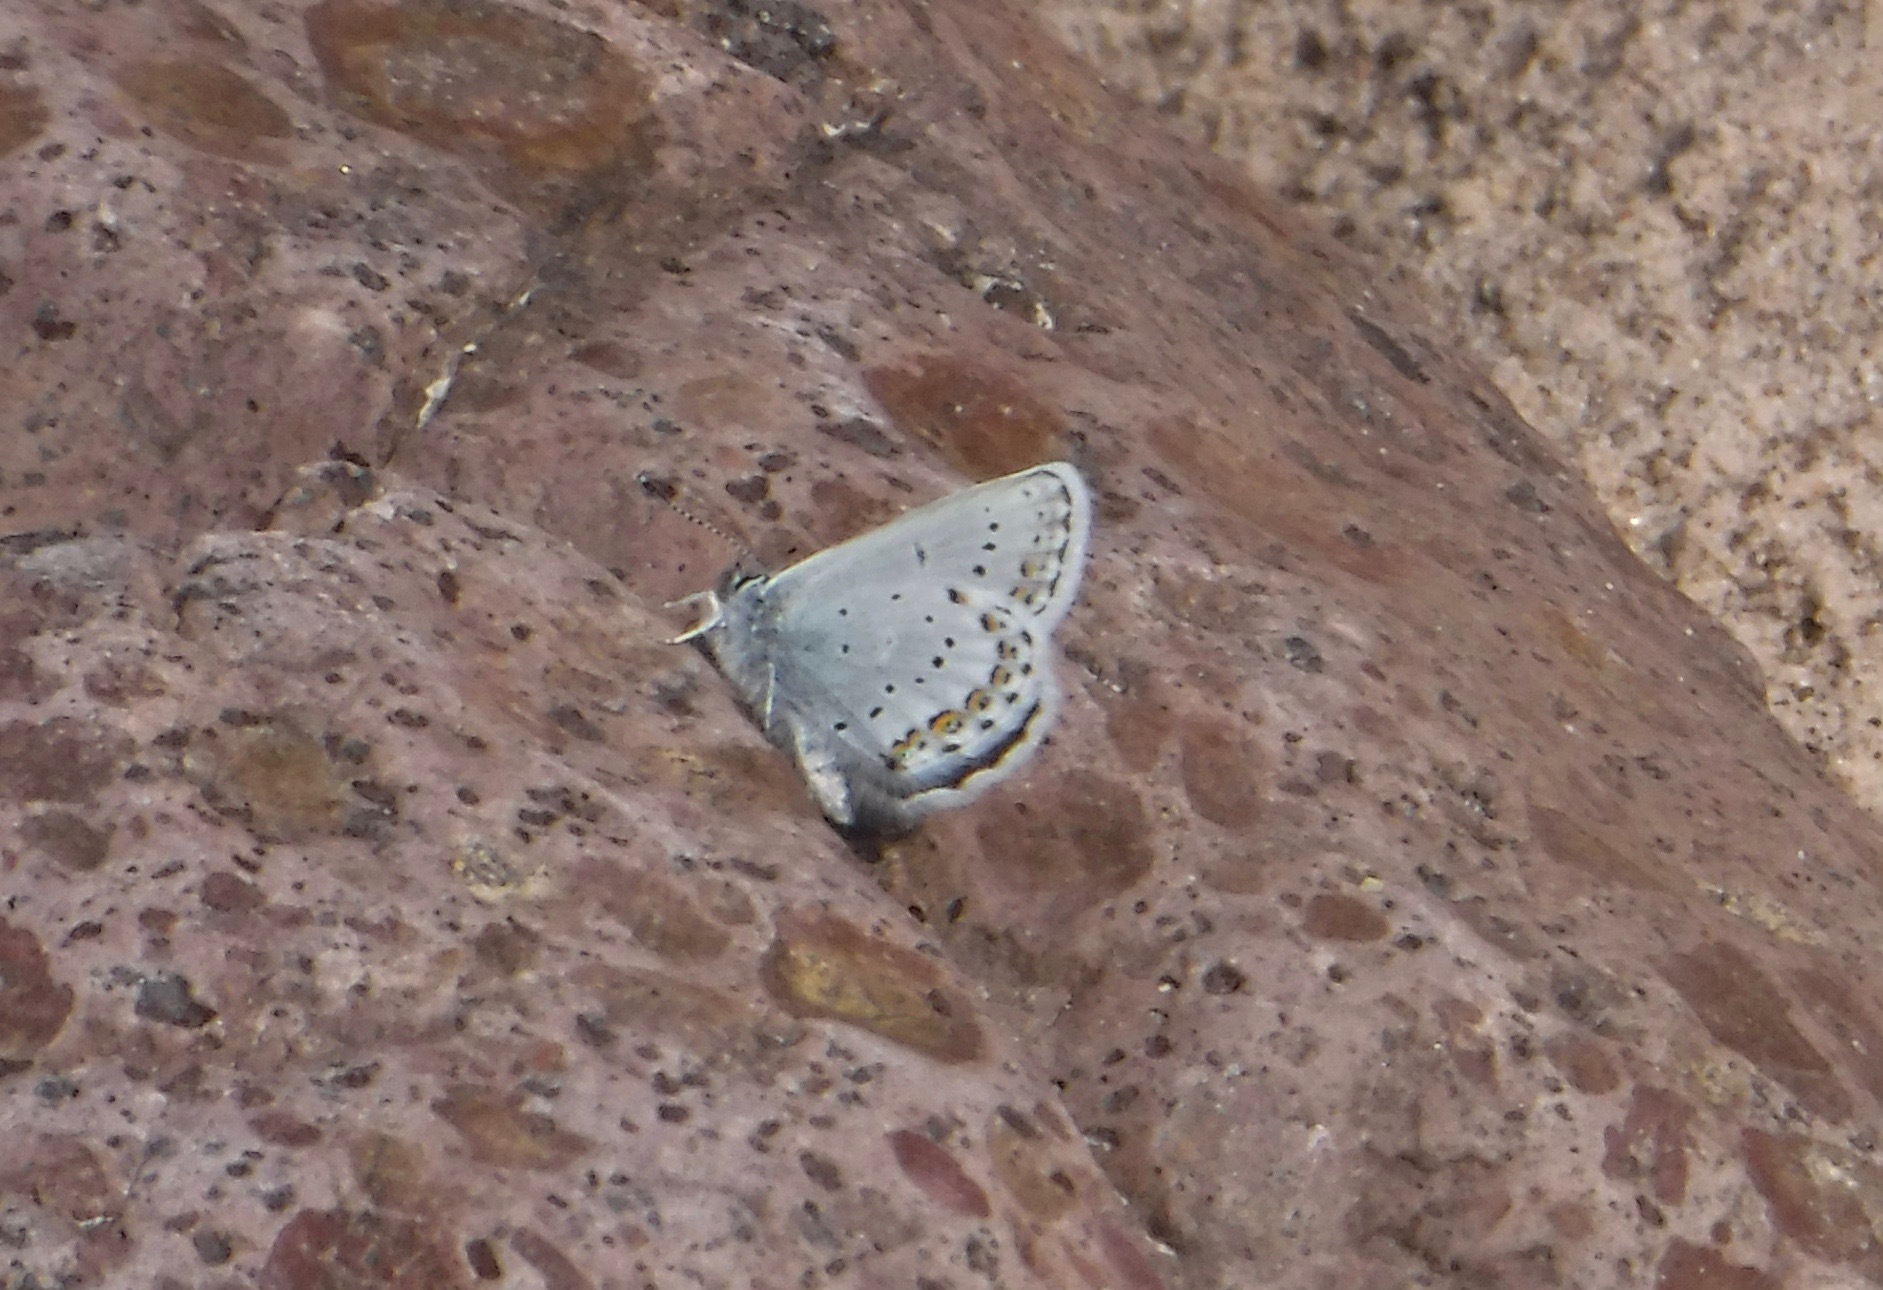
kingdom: Animalia
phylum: Arthropoda
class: Insecta
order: Lepidoptera
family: Lycaenidae
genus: Lycaeides
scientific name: Lycaeides idas
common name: Northern blue
